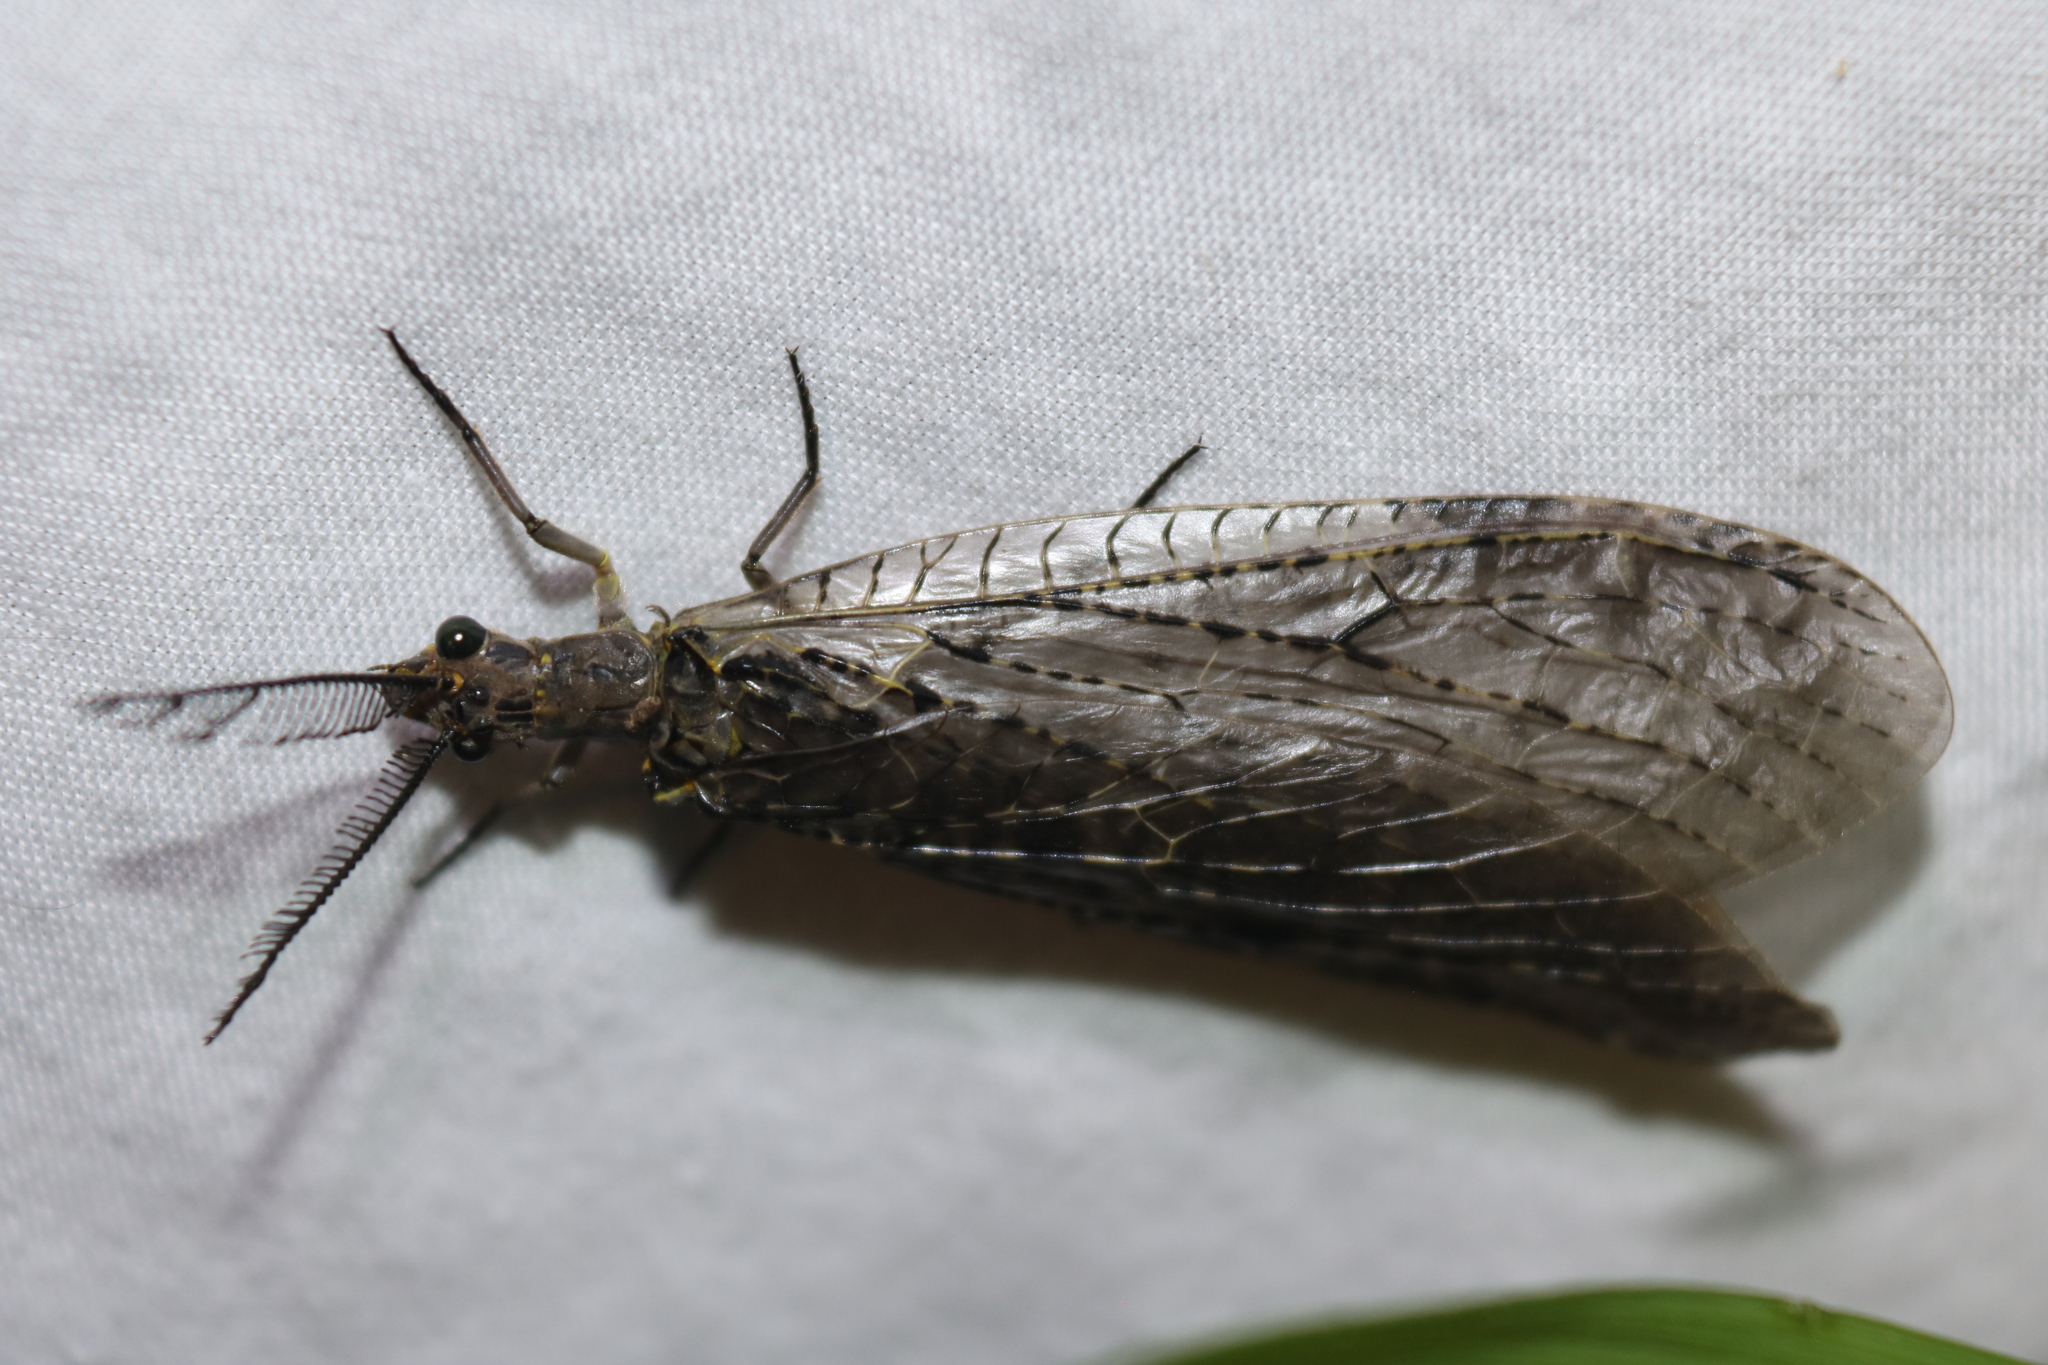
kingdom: Animalia
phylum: Arthropoda
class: Insecta
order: Megaloptera
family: Corydalidae
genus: Chauliodes
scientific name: Chauliodes rastricornis
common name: Spring fishfly
